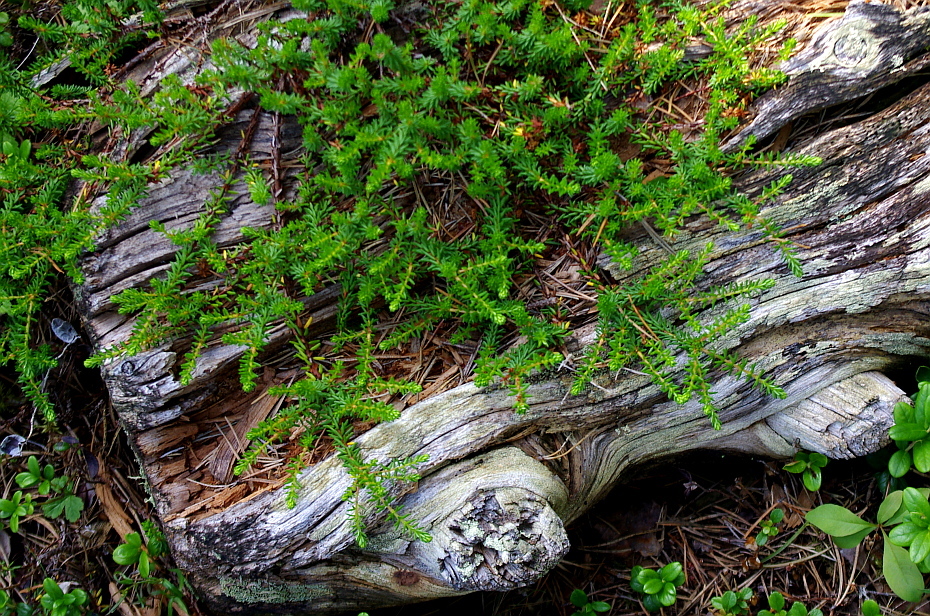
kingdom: Plantae
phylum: Tracheophyta
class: Magnoliopsida
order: Ericales
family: Ericaceae
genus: Empetrum
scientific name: Empetrum nigrum
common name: Black crowberry
